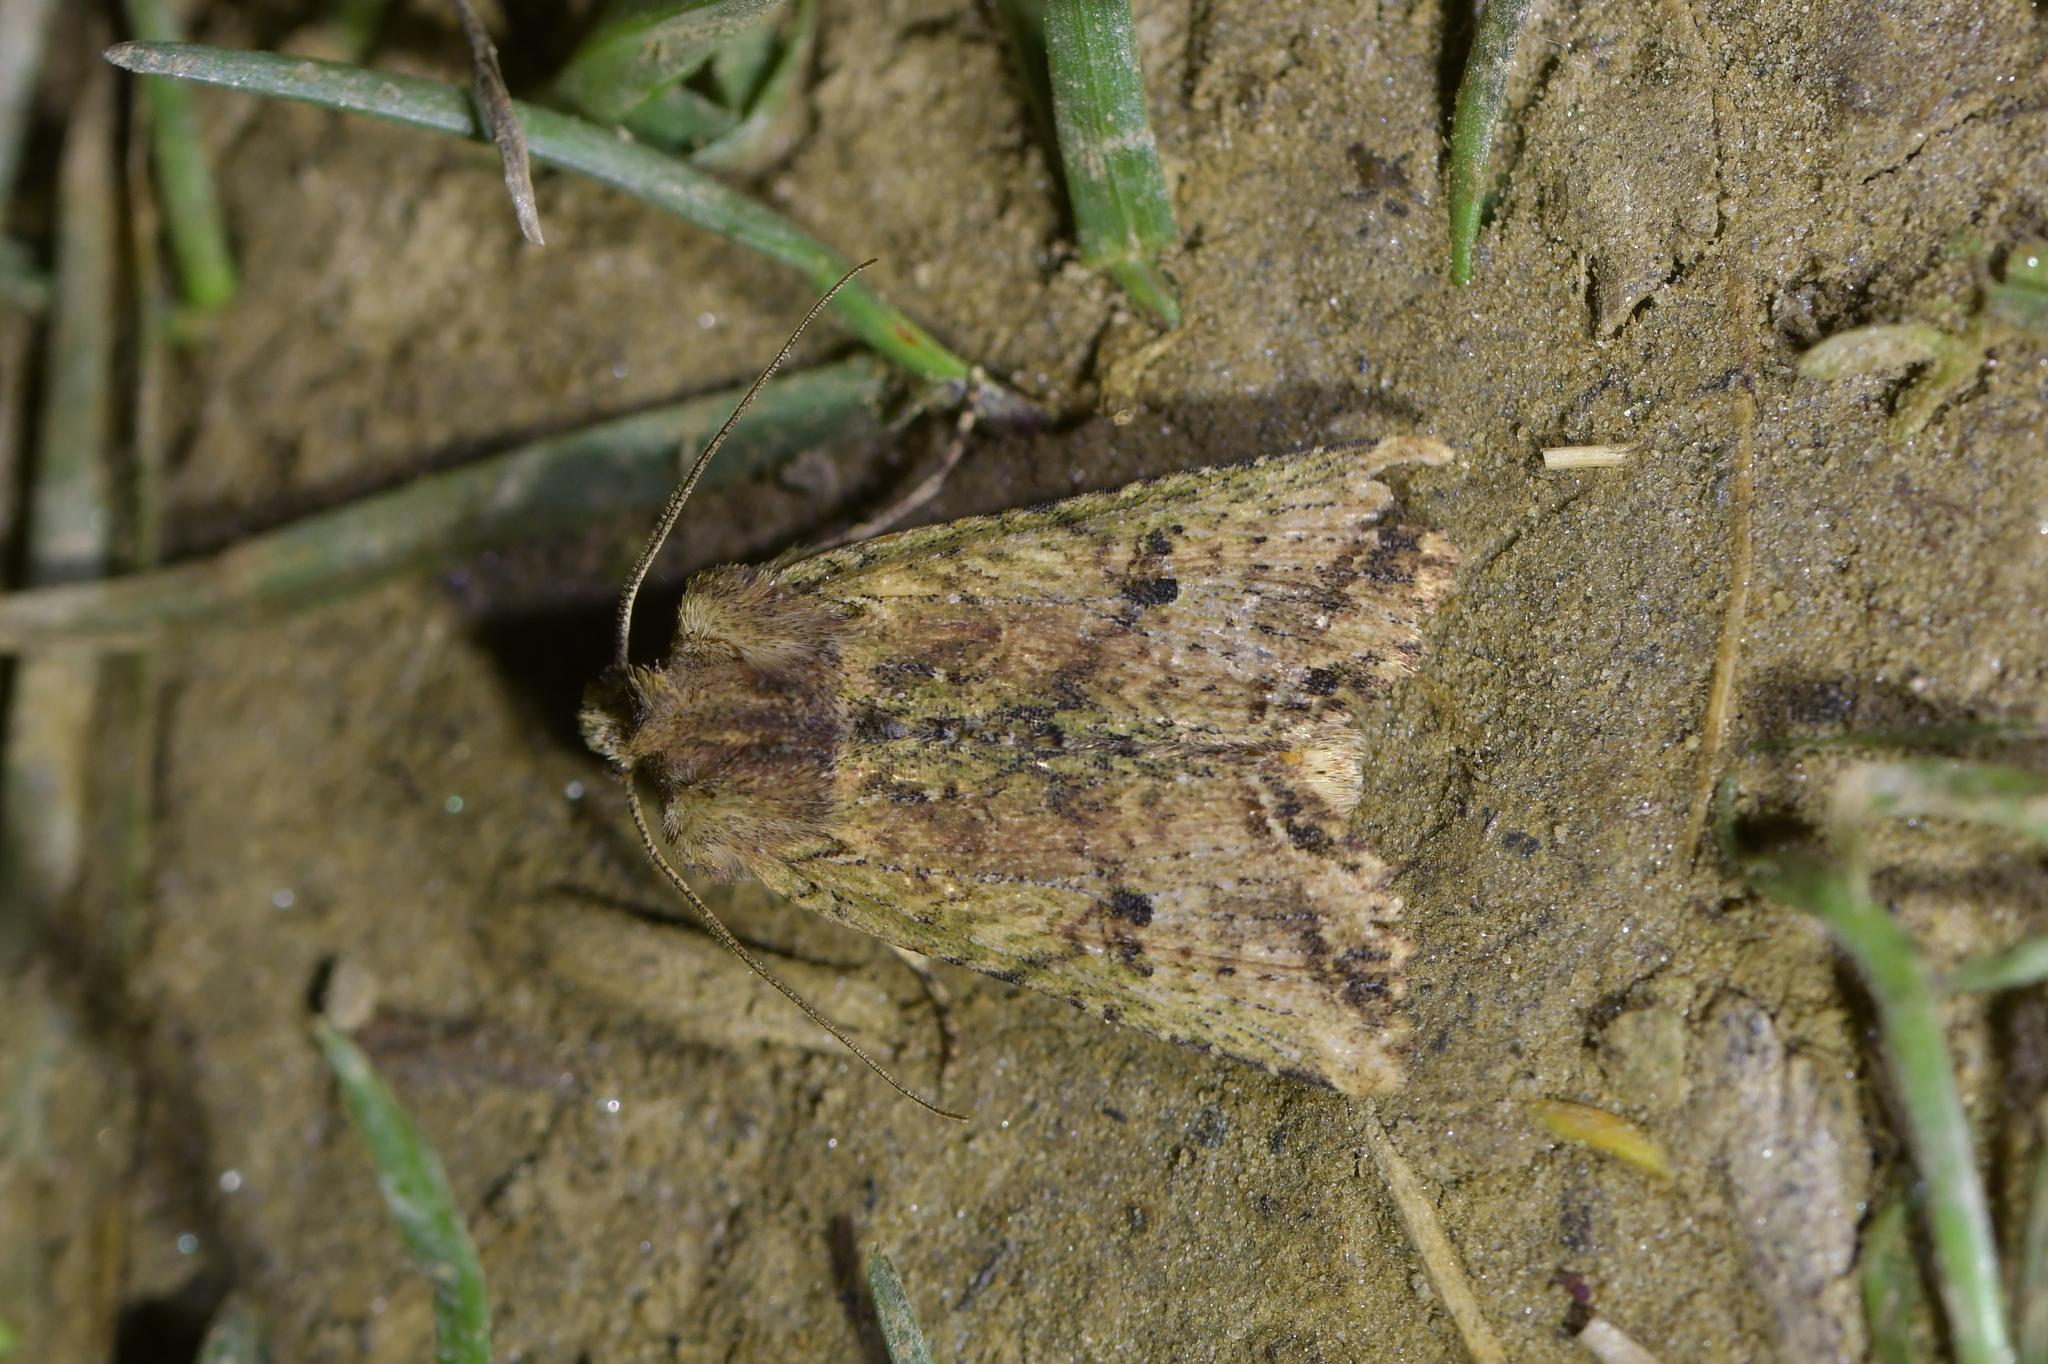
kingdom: Animalia
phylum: Arthropoda
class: Insecta
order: Lepidoptera
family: Noctuidae
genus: Meterana
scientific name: Meterana coeleno
